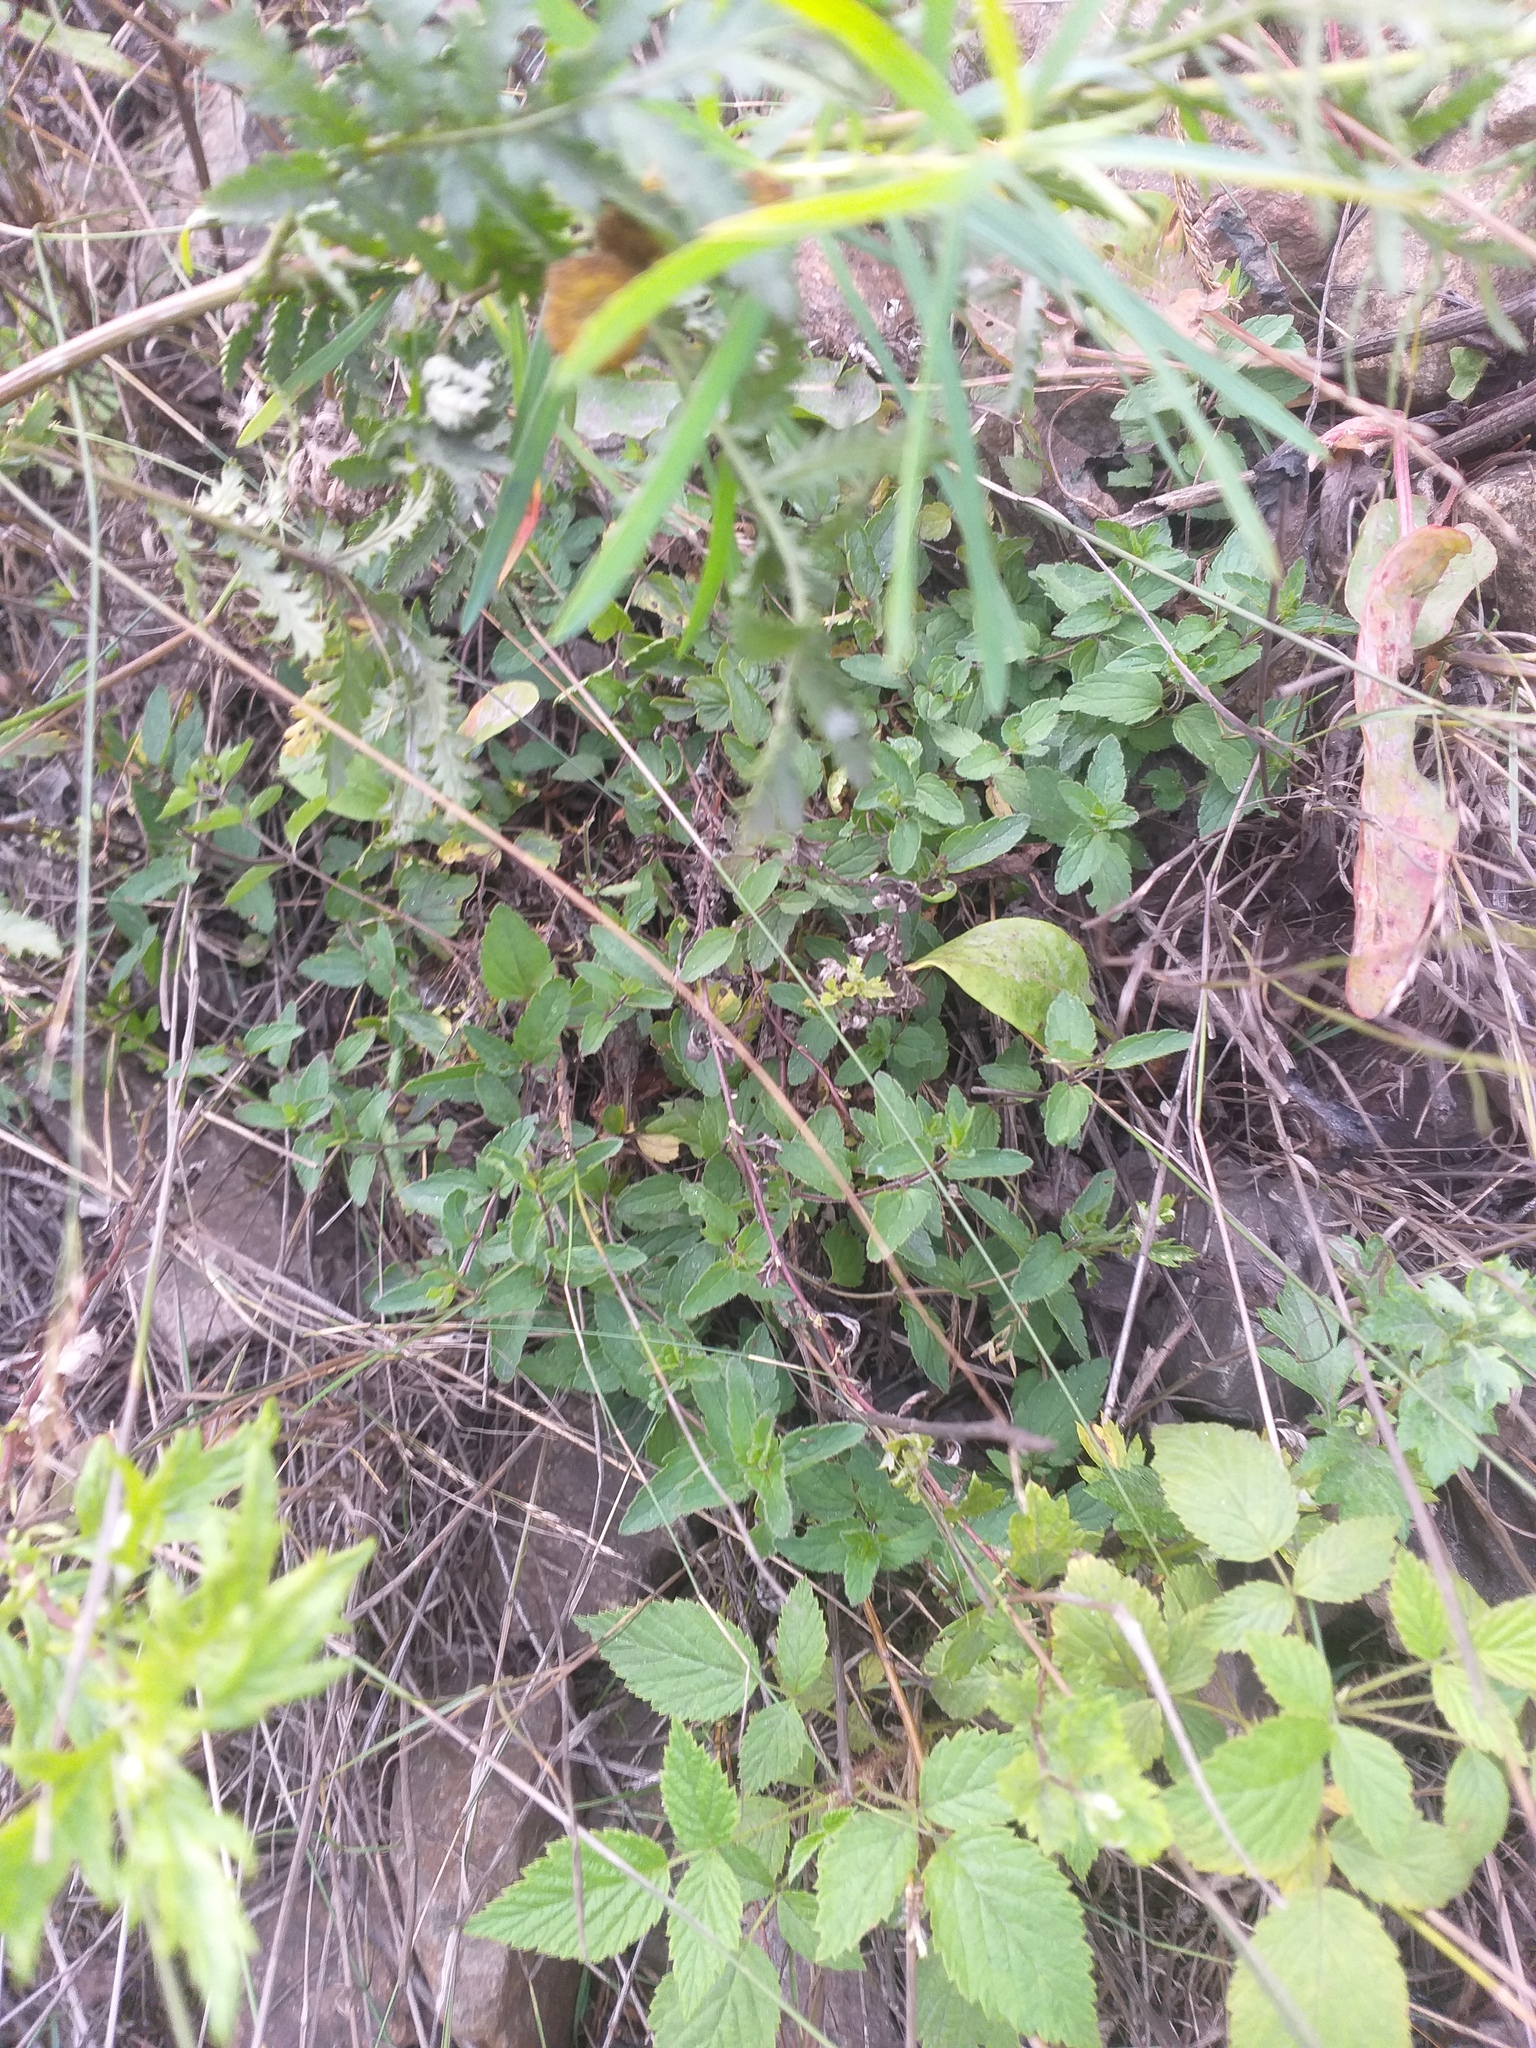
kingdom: Plantae
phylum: Tracheophyta
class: Magnoliopsida
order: Lamiales
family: Plantaginaceae
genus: Veronica
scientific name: Veronica chamaedrys
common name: Germander speedwell
